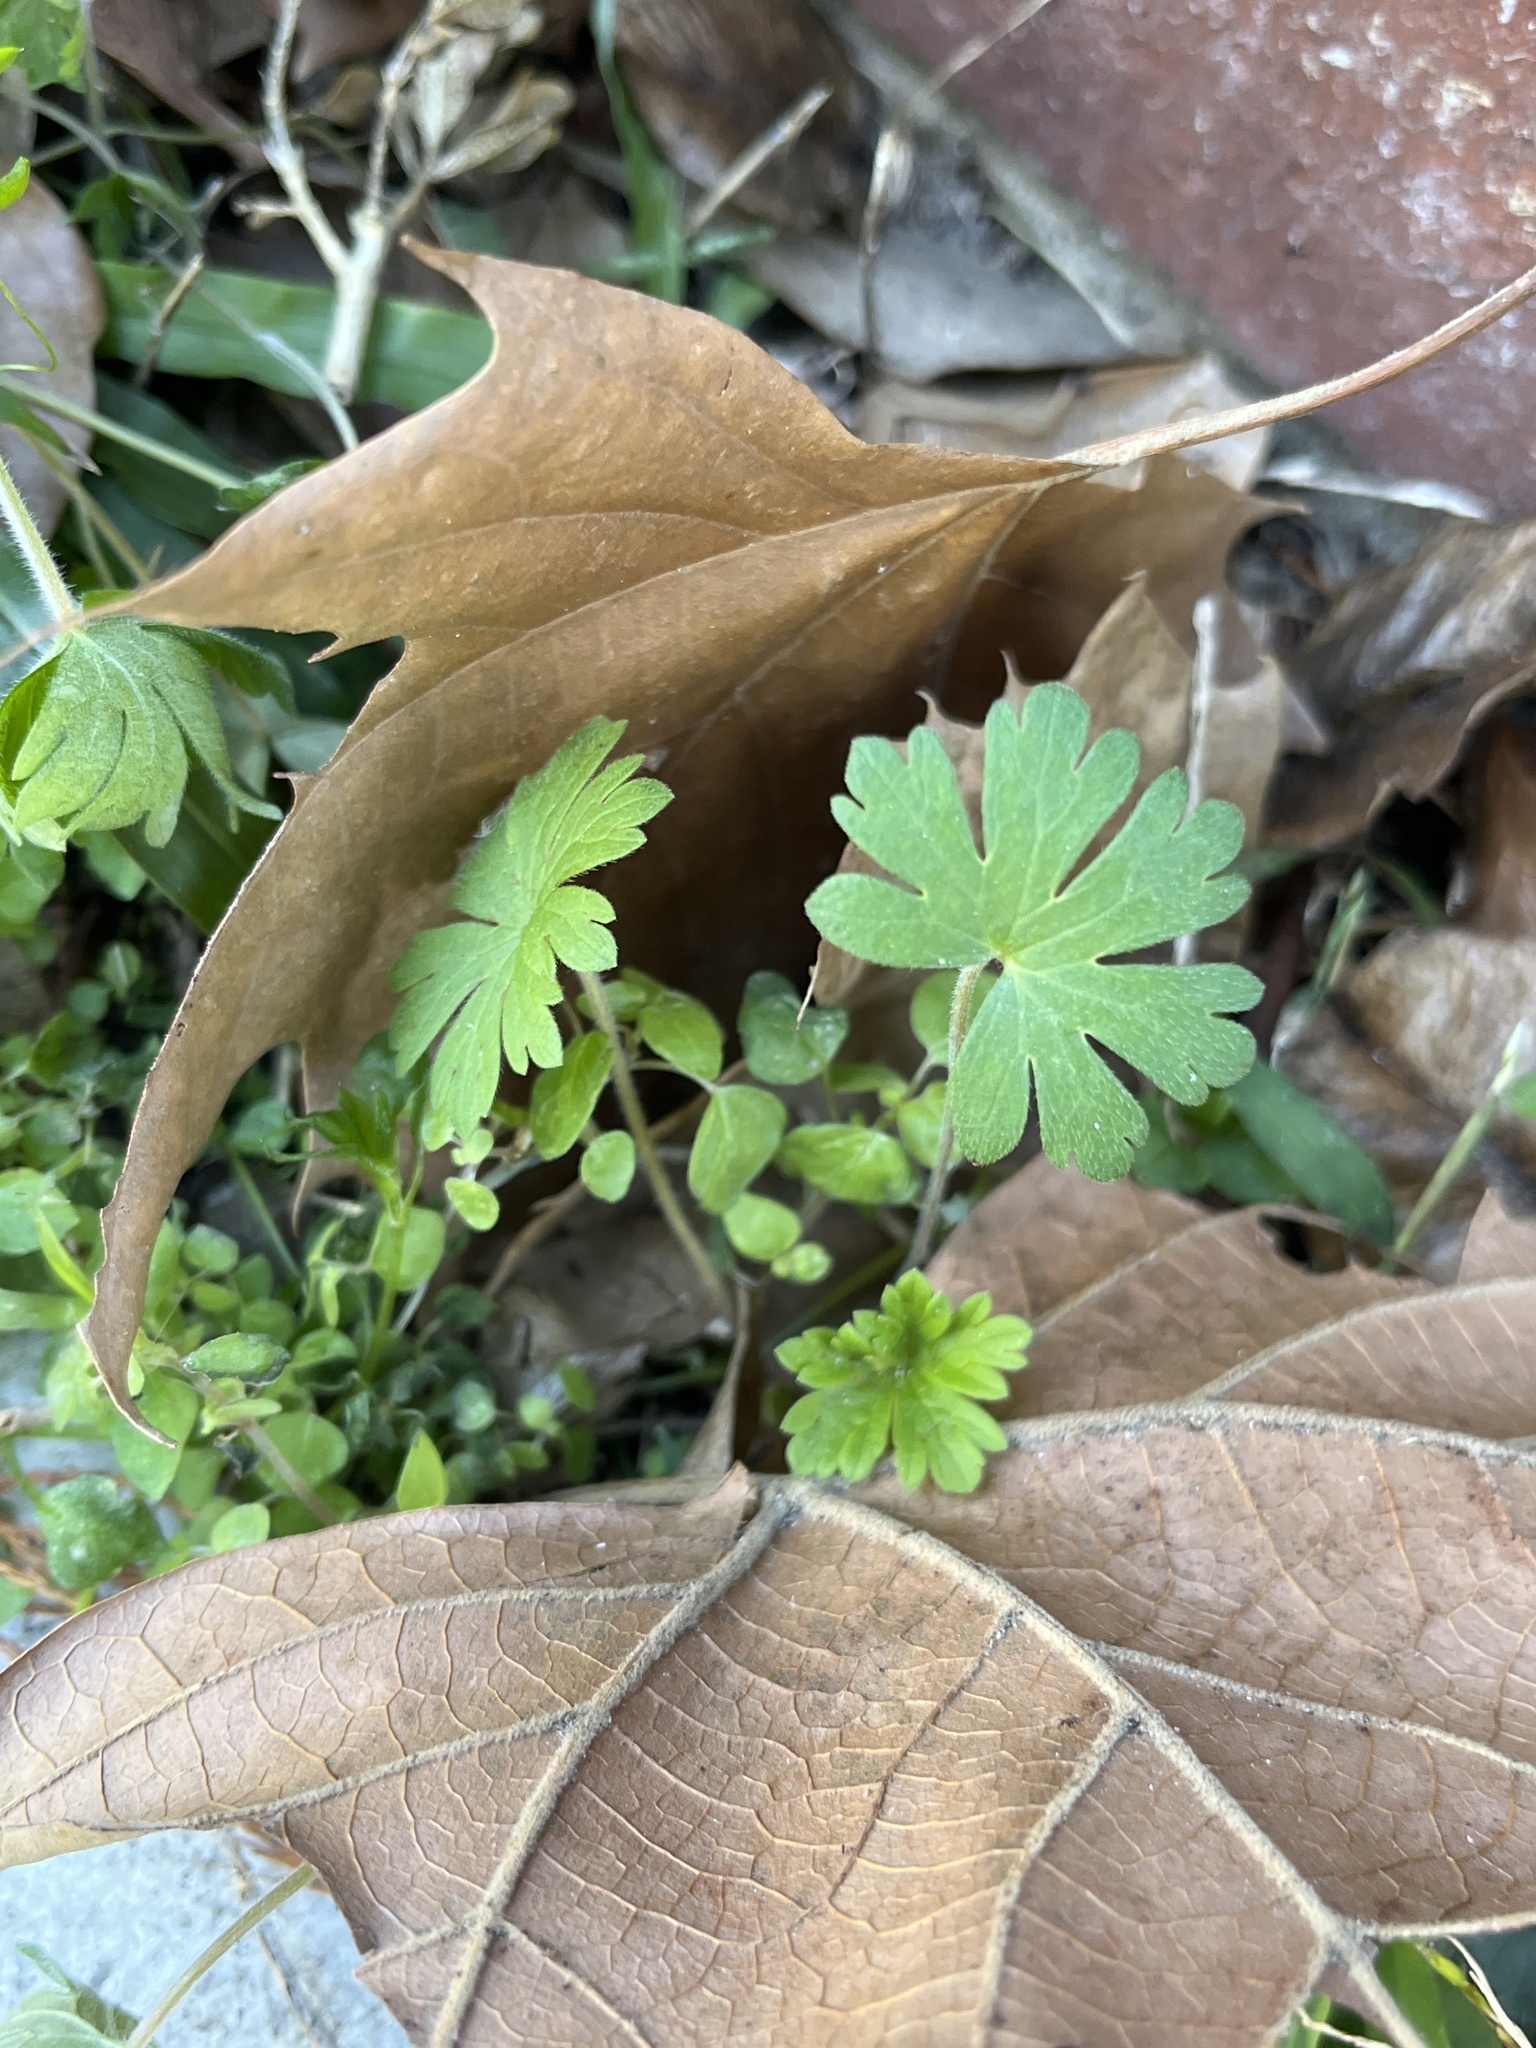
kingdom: Plantae
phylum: Tracheophyta
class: Magnoliopsida
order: Geraniales
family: Geraniaceae
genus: Geranium
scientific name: Geranium carolinianum
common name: Carolina crane's-bill
